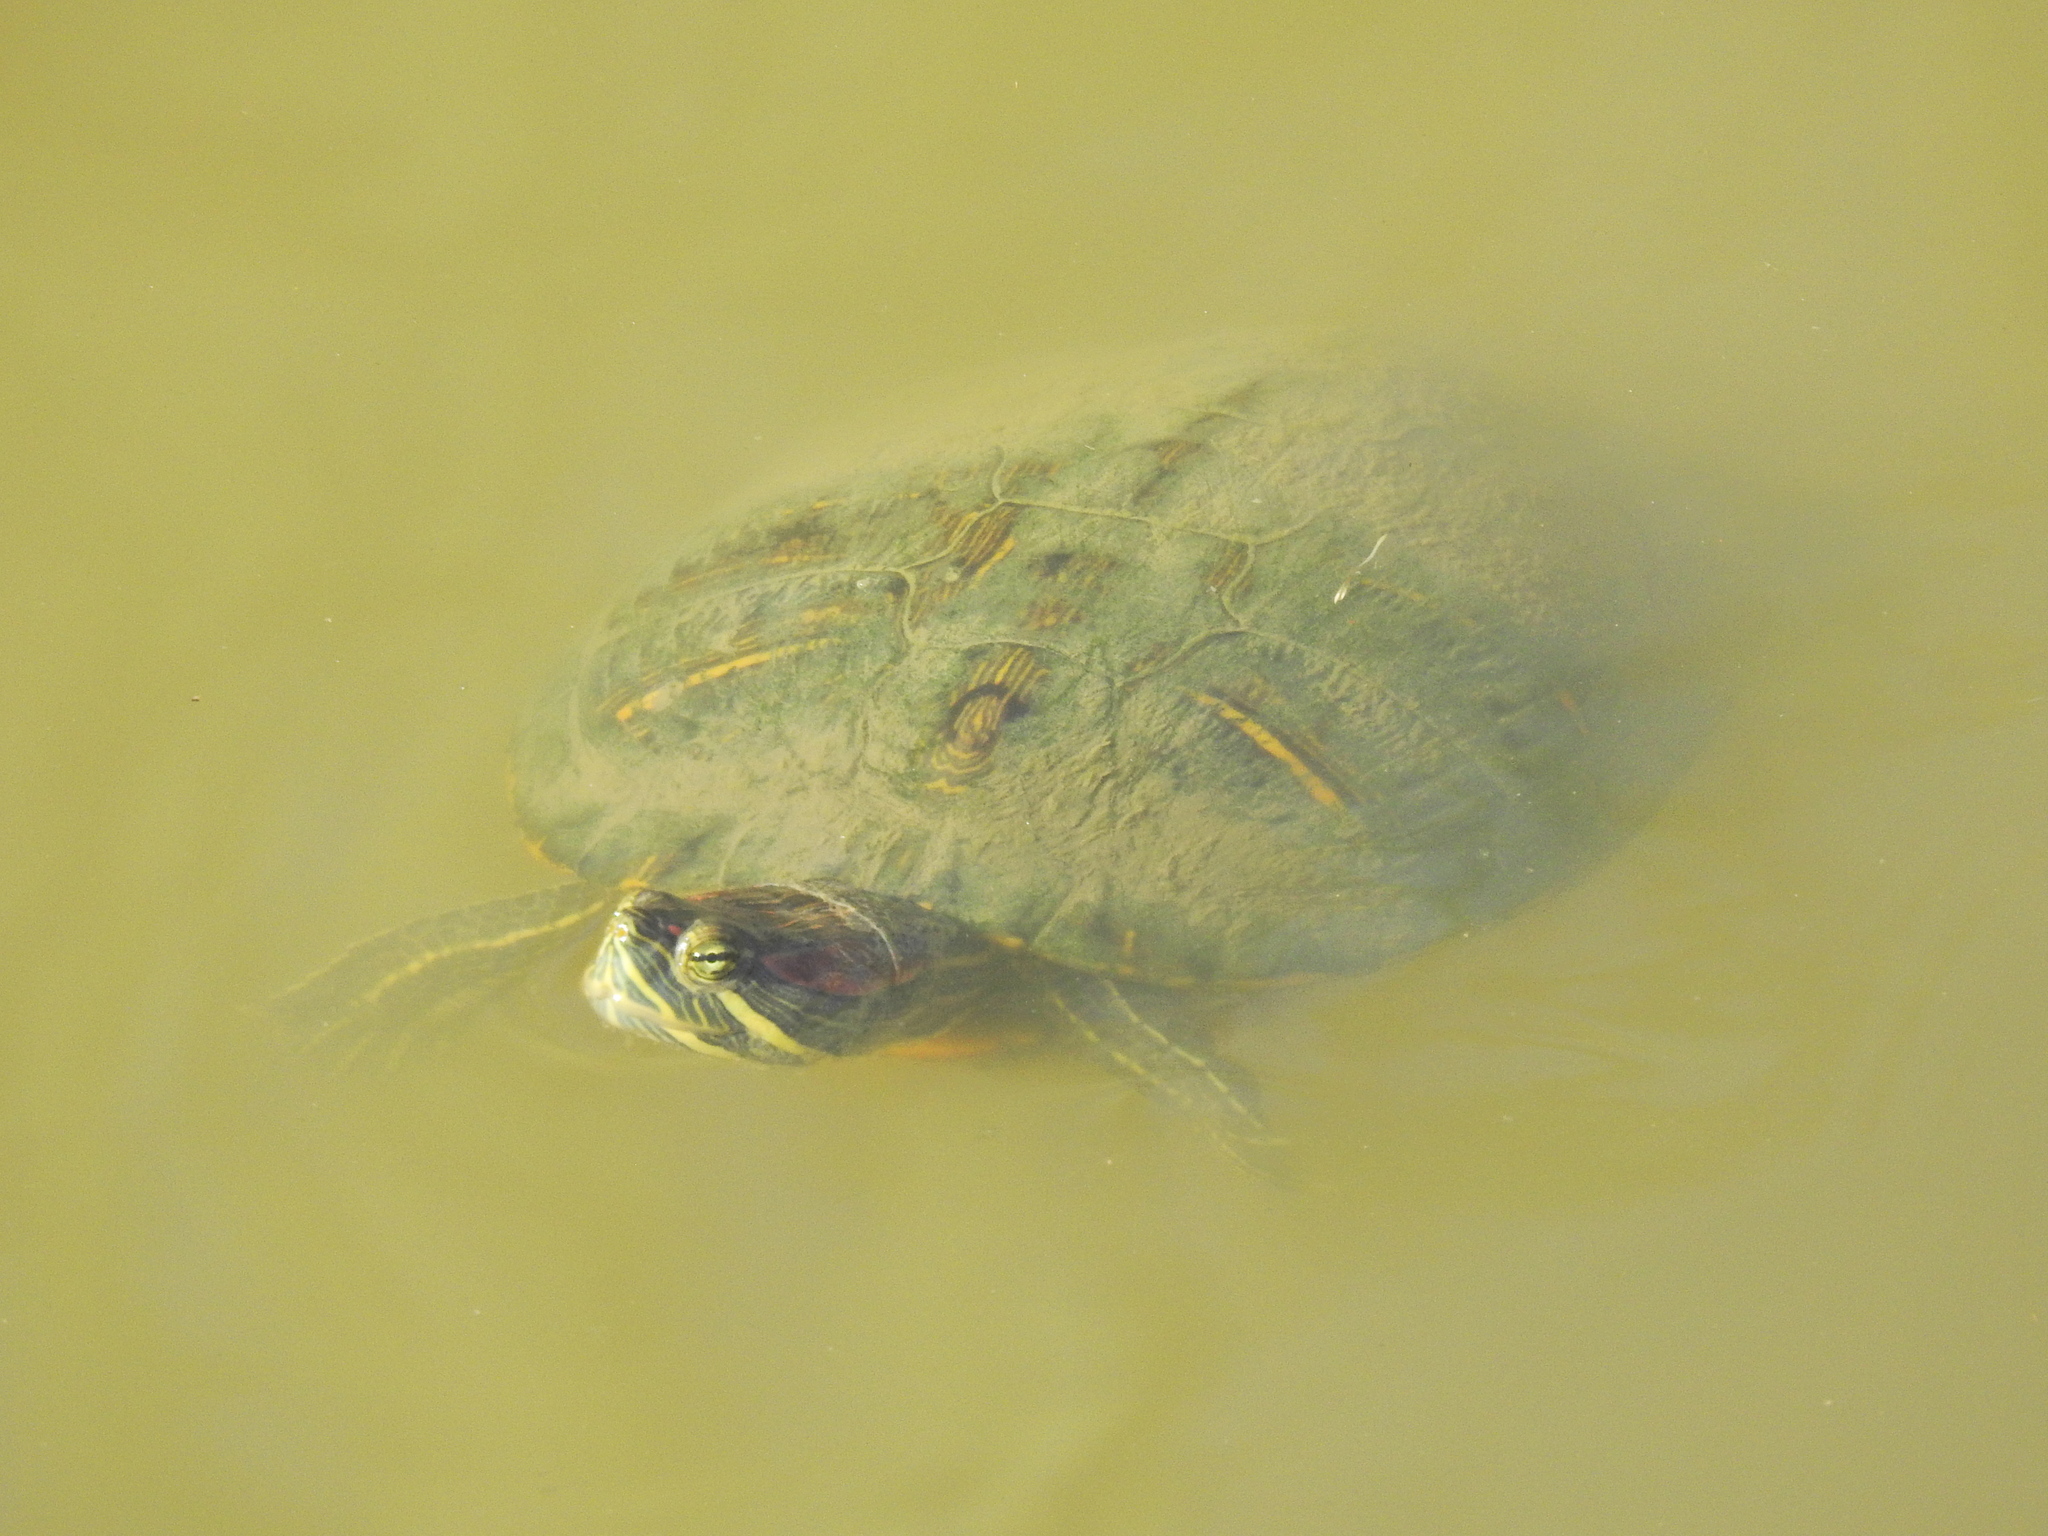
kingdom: Animalia
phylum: Chordata
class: Testudines
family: Emydidae
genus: Trachemys
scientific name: Trachemys scripta
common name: Slider
